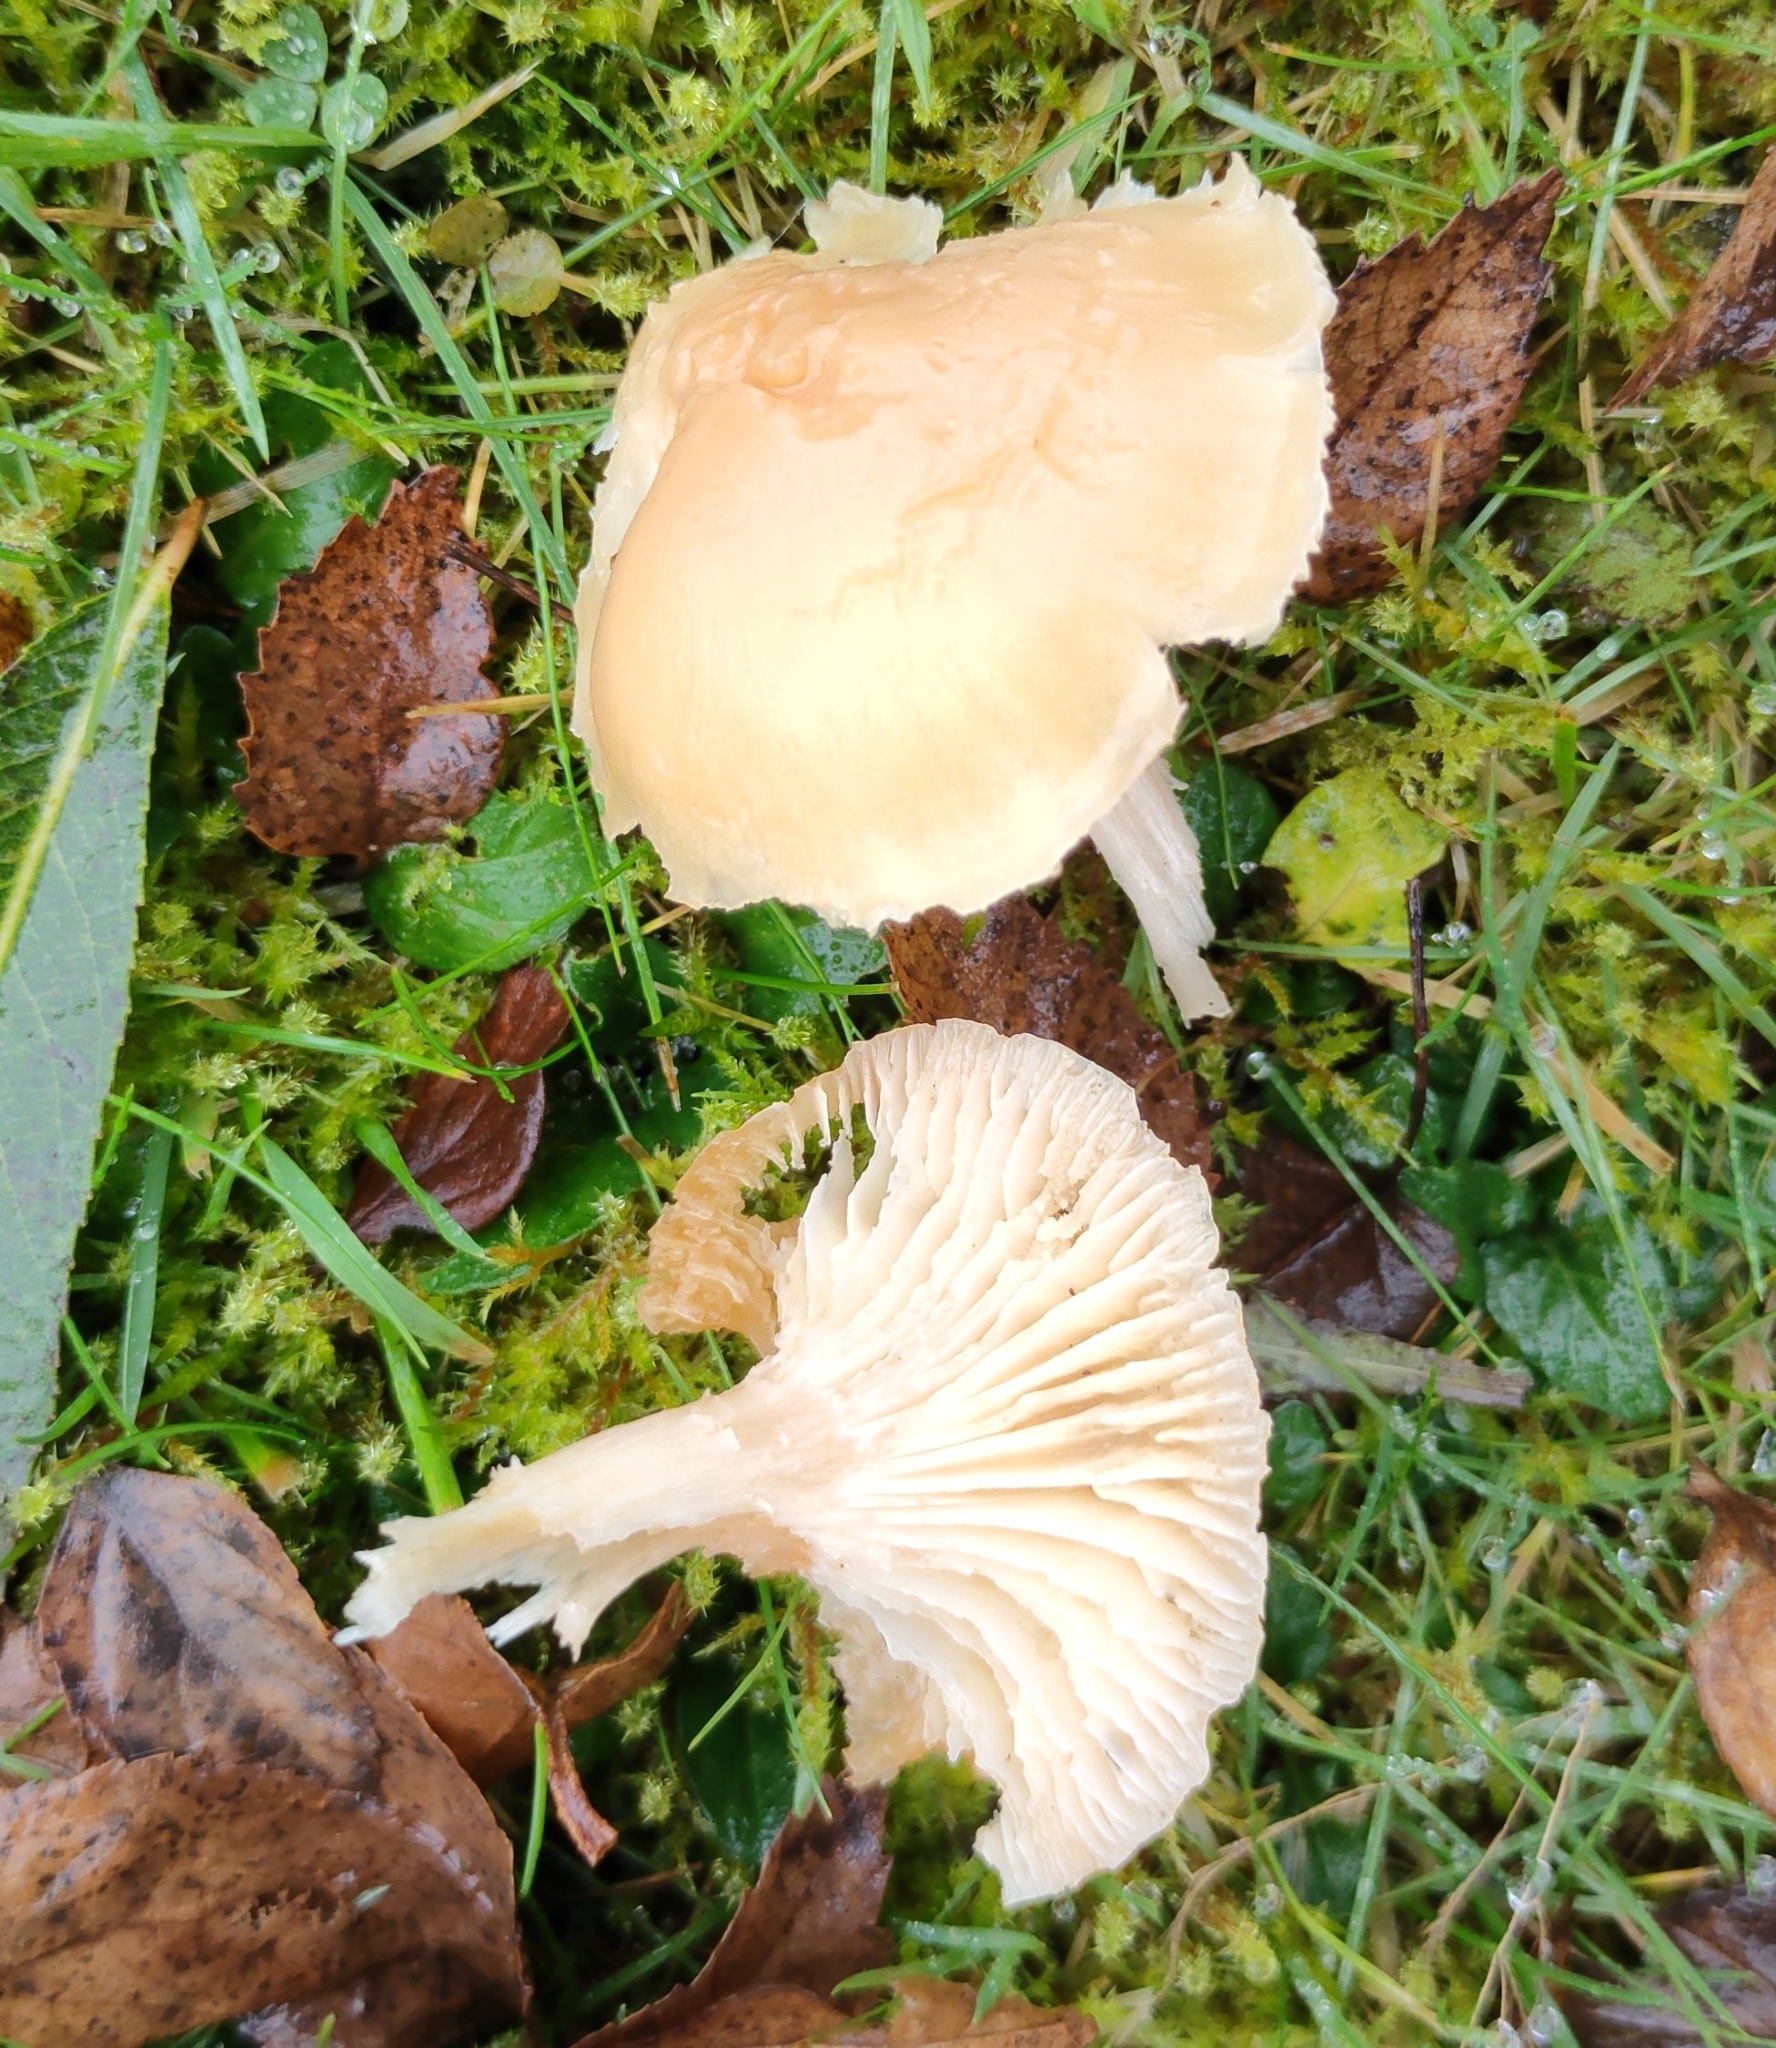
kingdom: Fungi
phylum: Basidiomycota
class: Agaricomycetes
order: Agaricales
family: Hygrophoraceae
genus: Cuphophyllus
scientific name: Cuphophyllus pratensis
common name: Meadow waxcap
